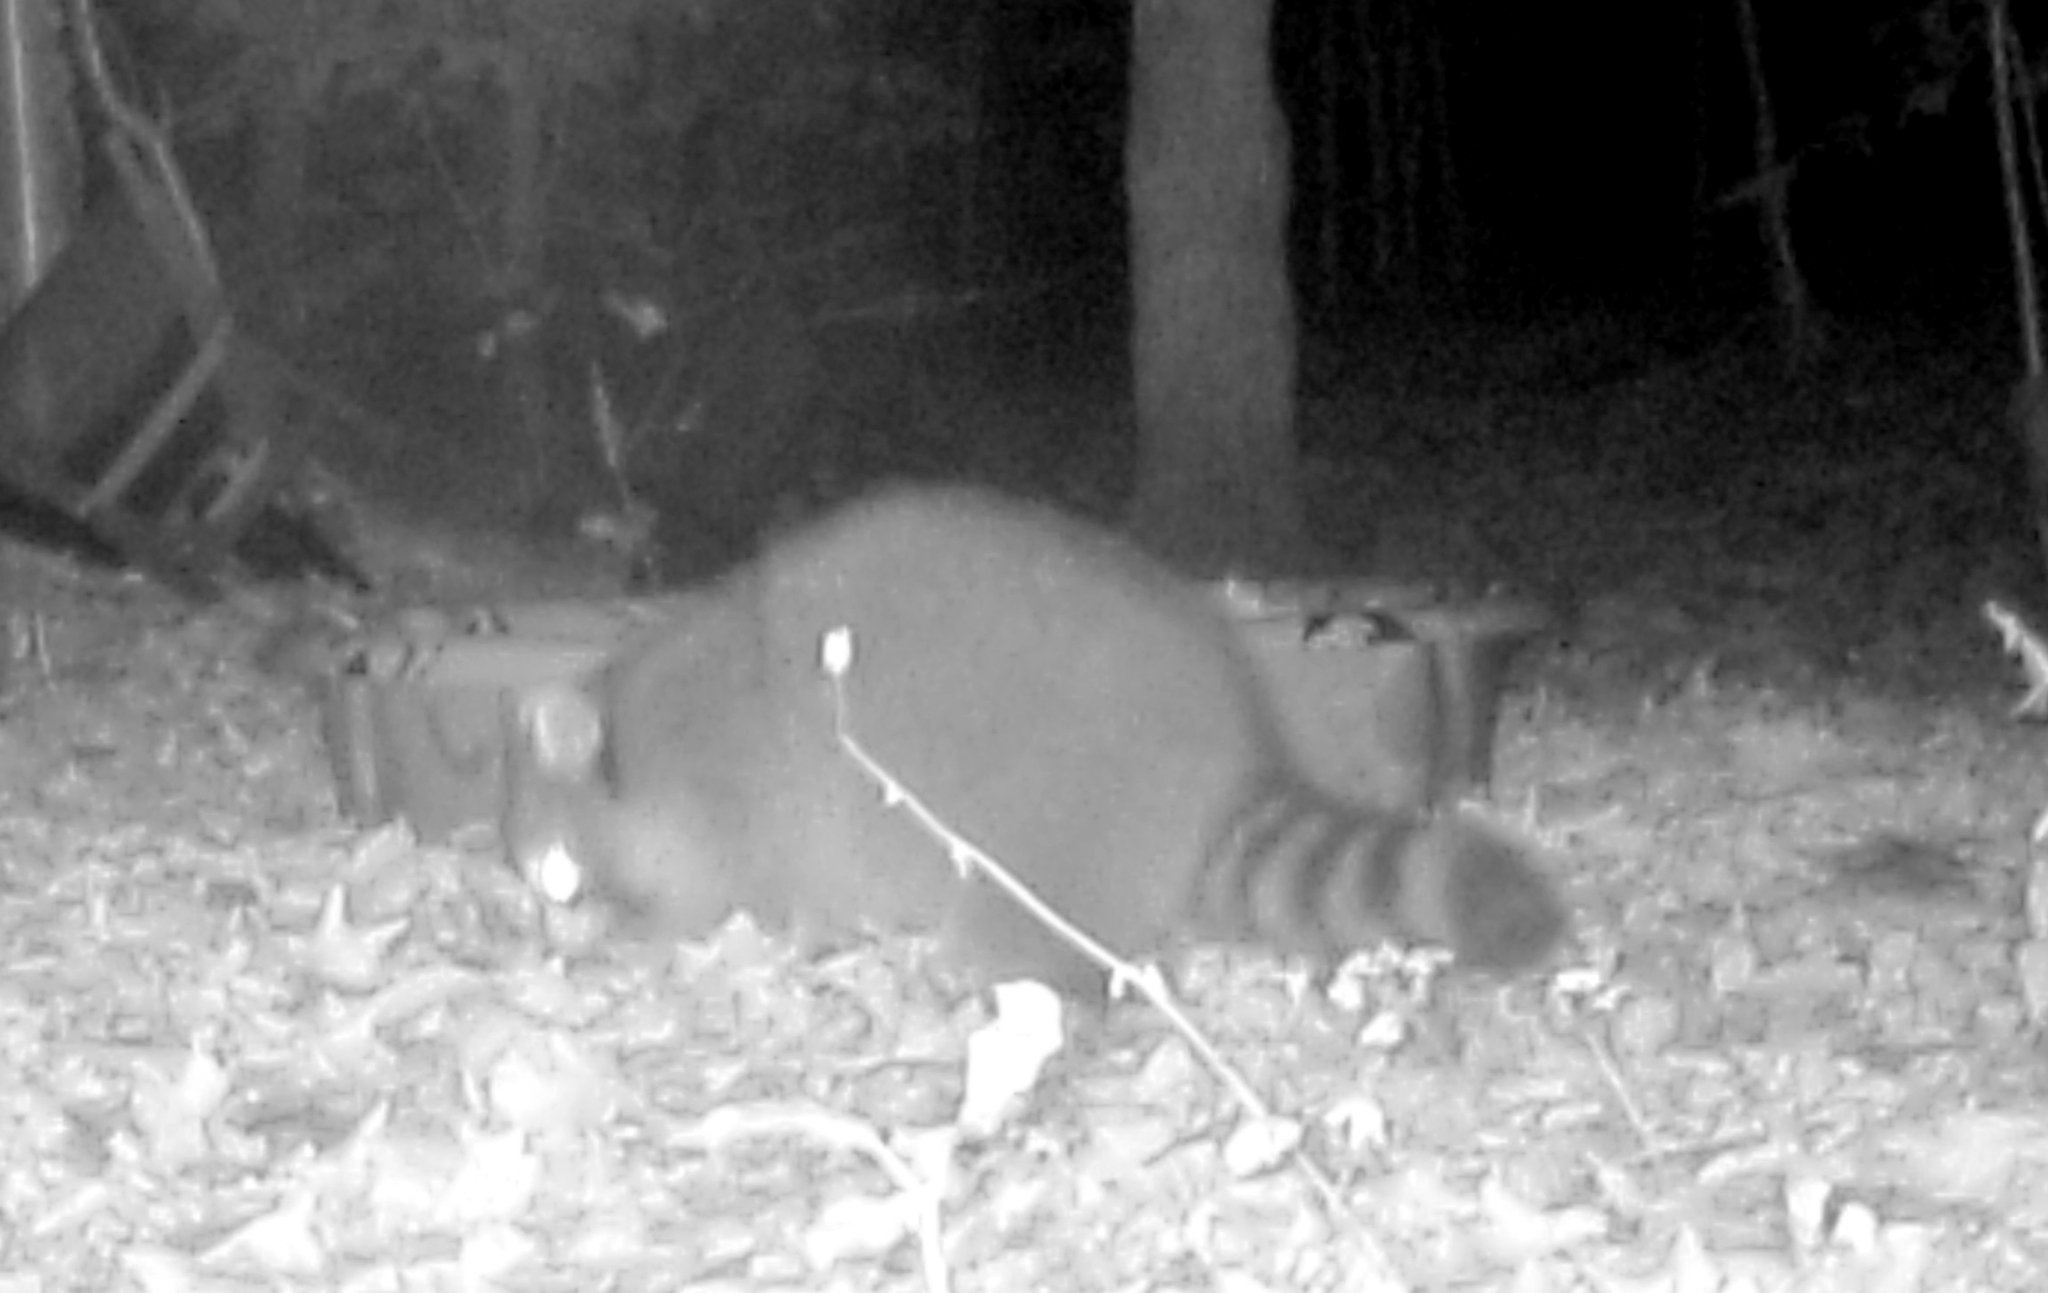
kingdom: Animalia
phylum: Chordata
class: Mammalia
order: Carnivora
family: Procyonidae
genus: Procyon
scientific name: Procyon lotor
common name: Raccoon
